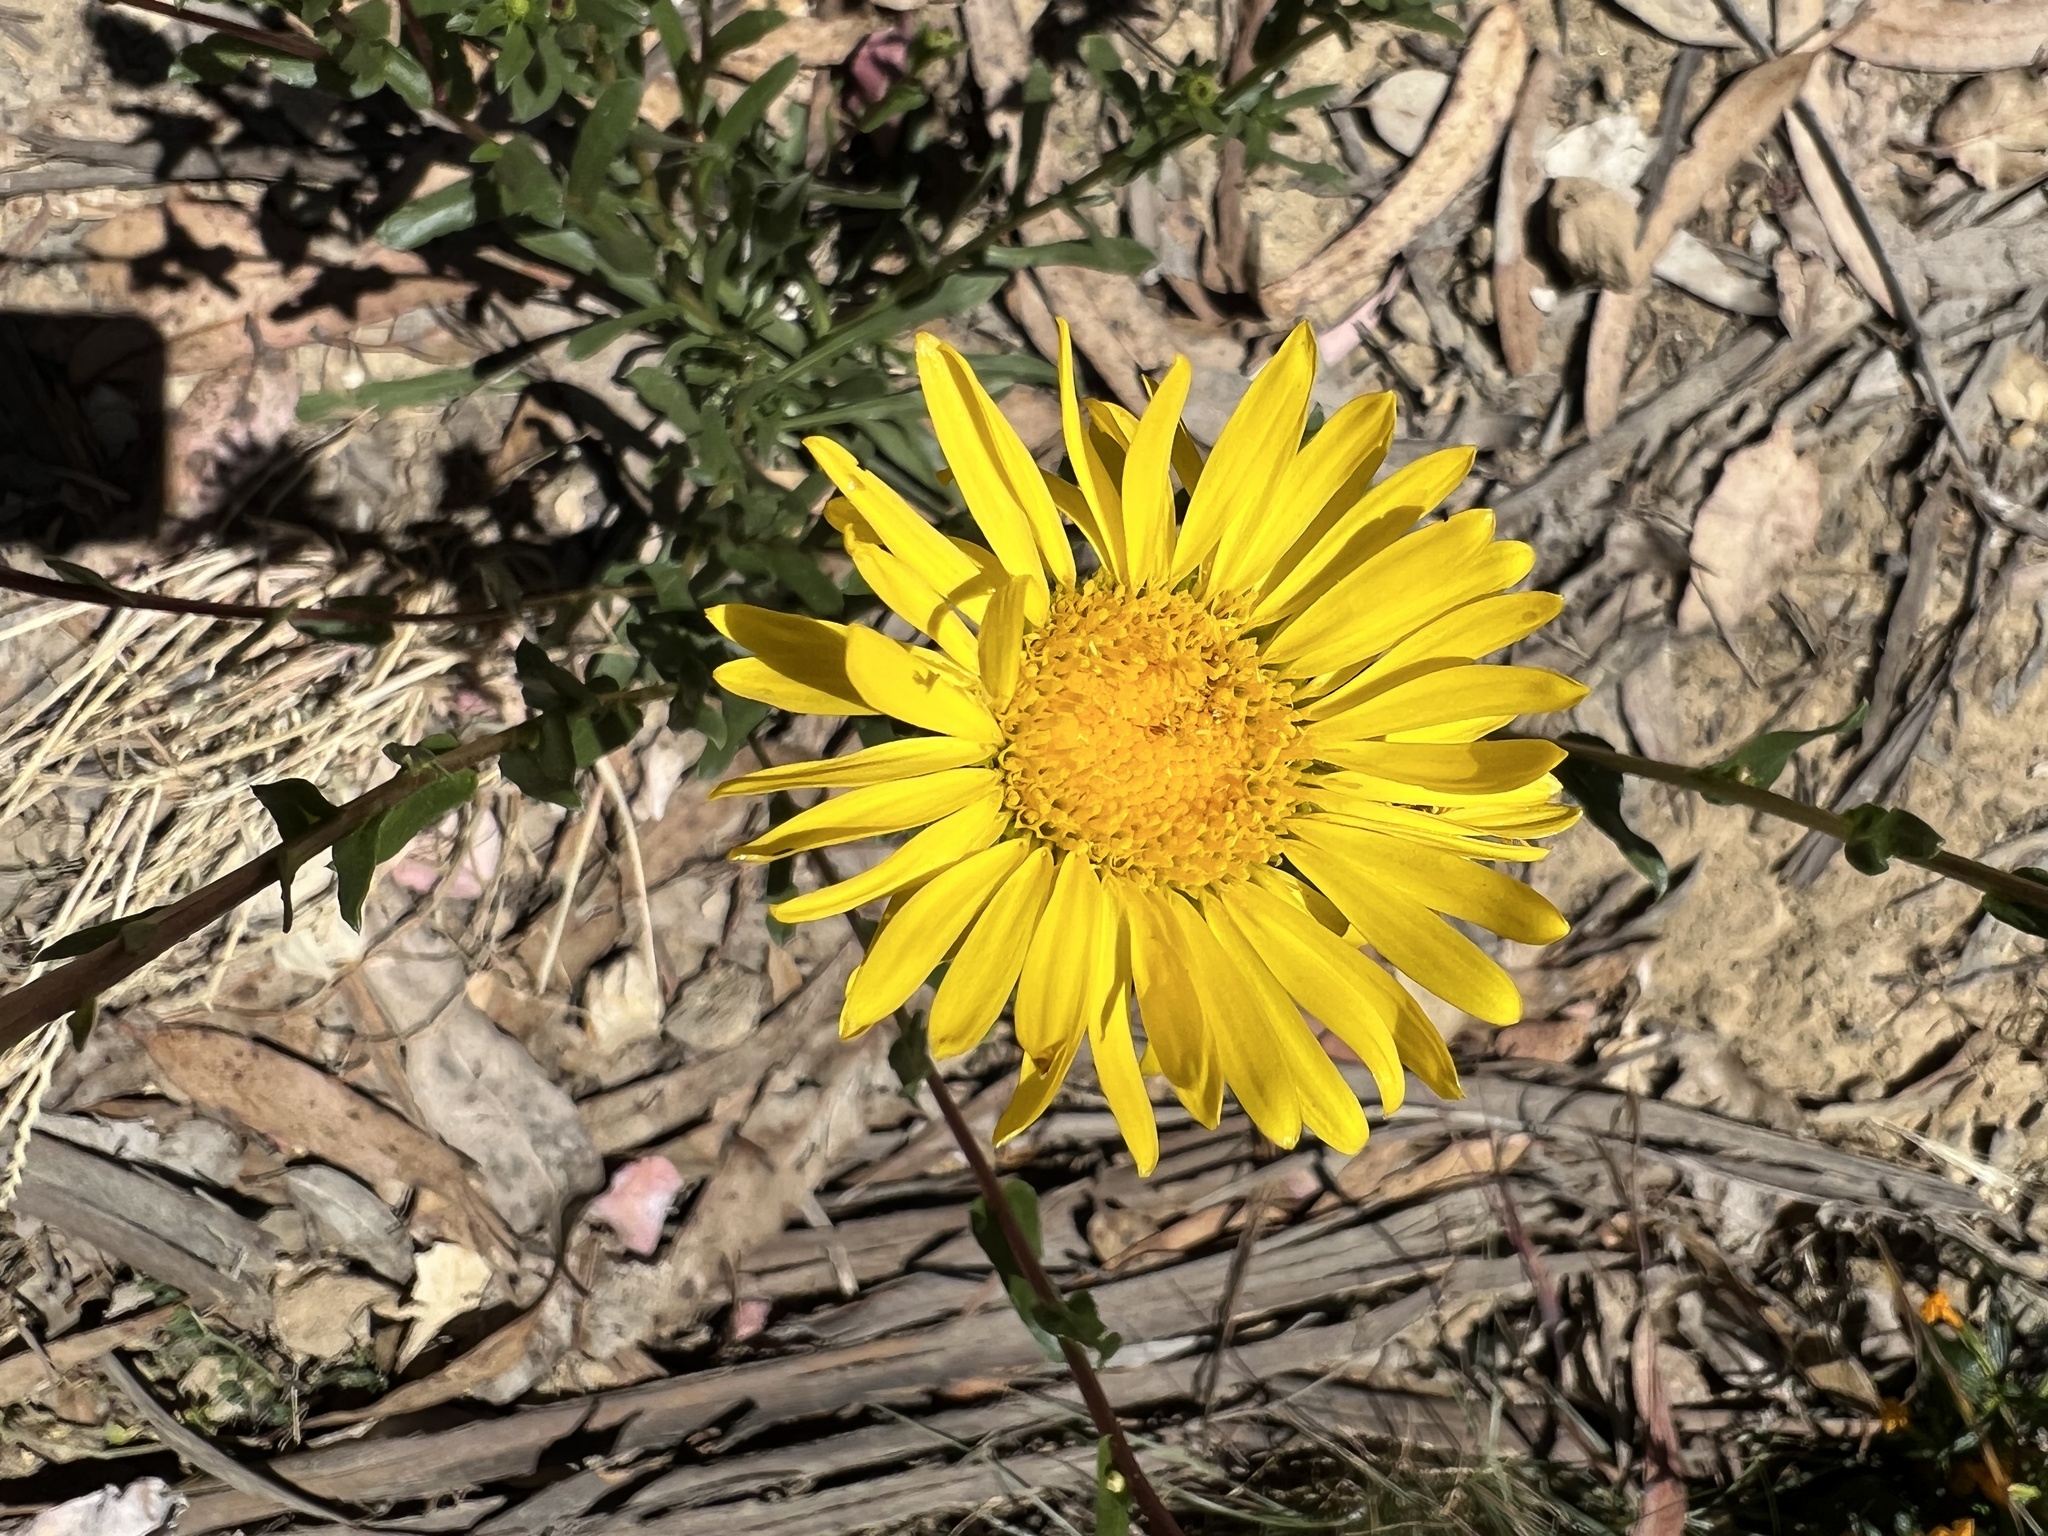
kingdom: Plantae
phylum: Tracheophyta
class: Magnoliopsida
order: Asterales
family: Asteraceae
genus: Grindelia
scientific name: Grindelia hirsutula
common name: Hairy gumweed
